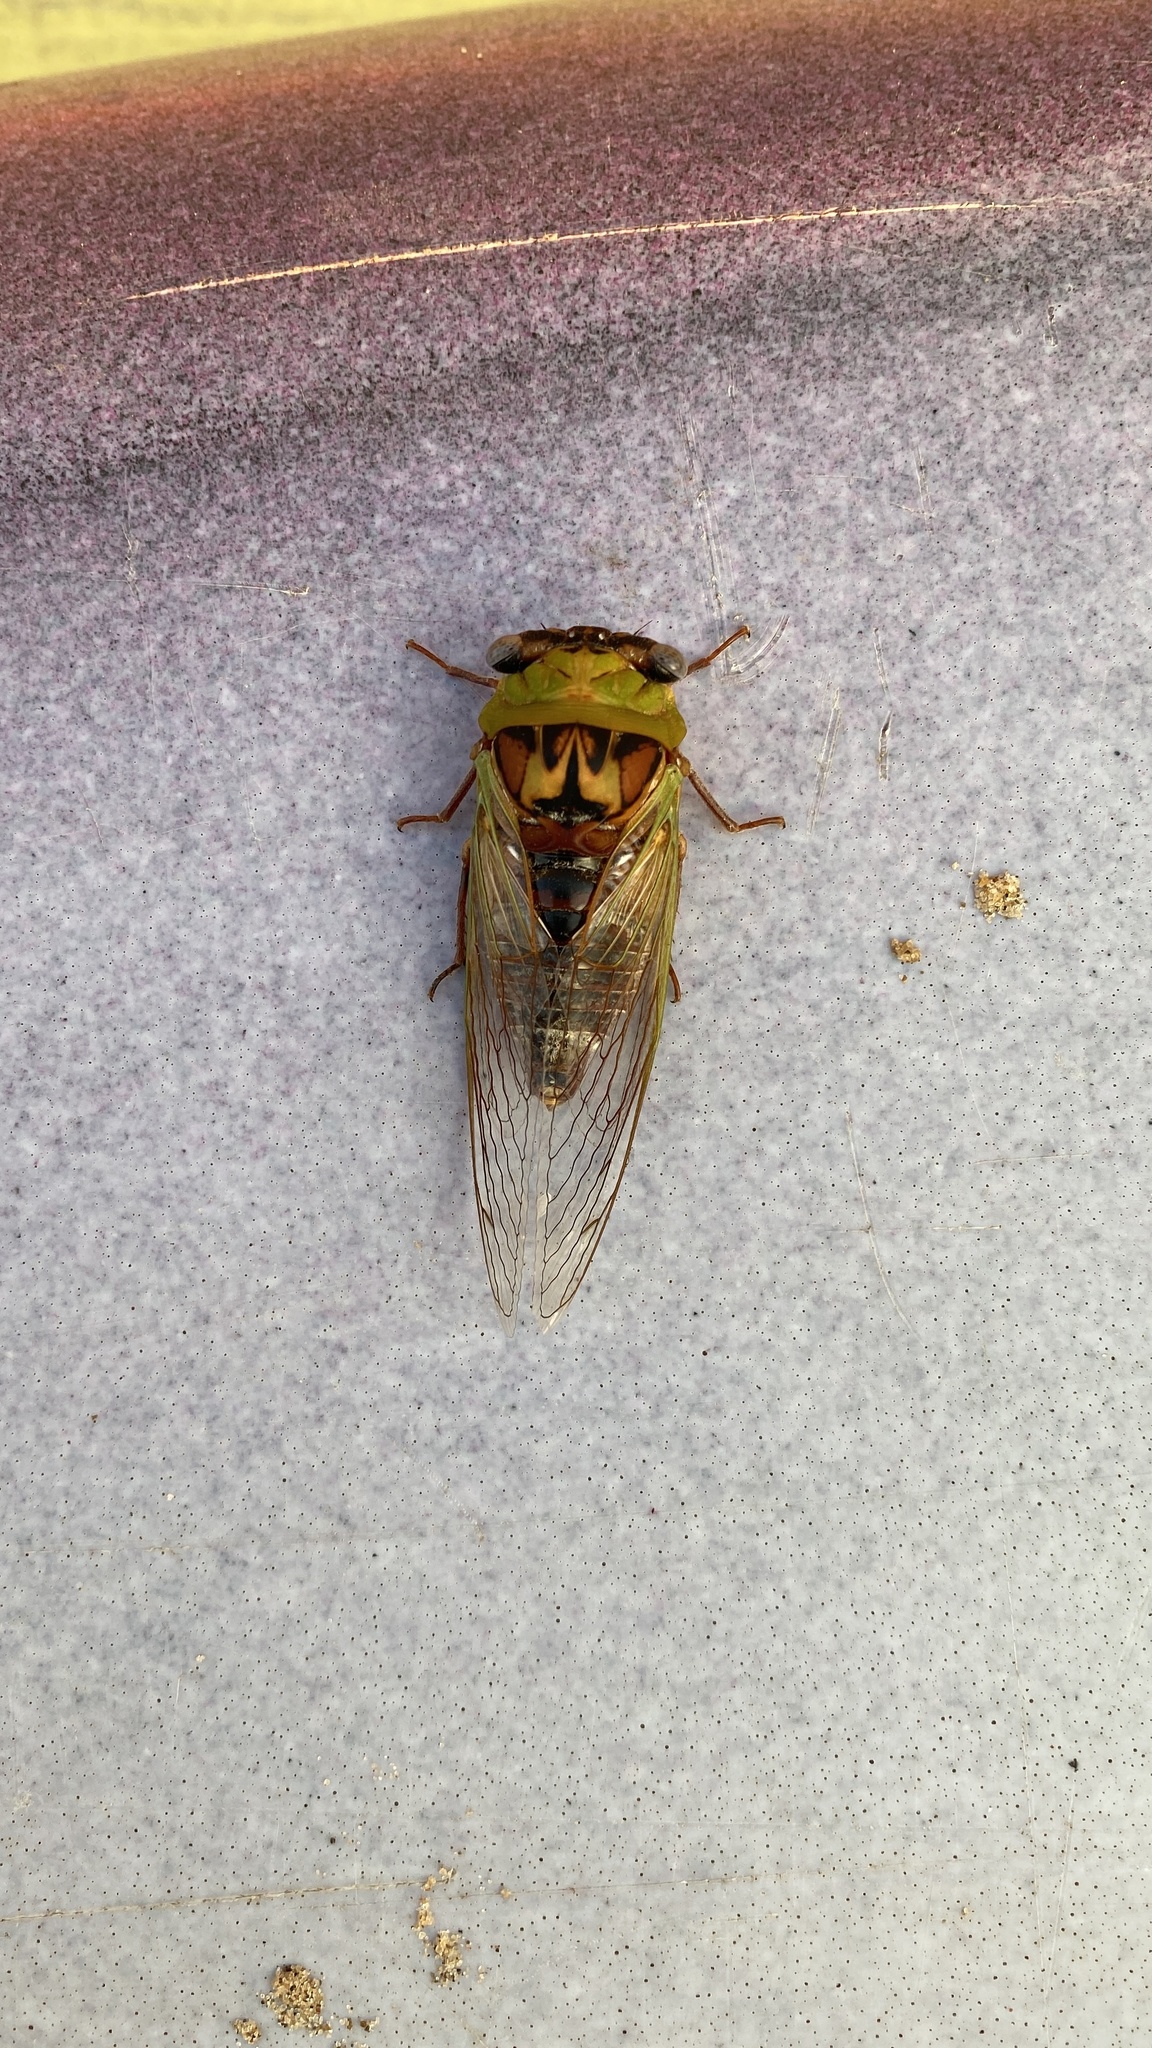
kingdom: Animalia
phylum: Arthropoda
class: Insecta
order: Hemiptera
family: Cicadidae
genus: Megatibicen
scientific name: Megatibicen pronotalis
